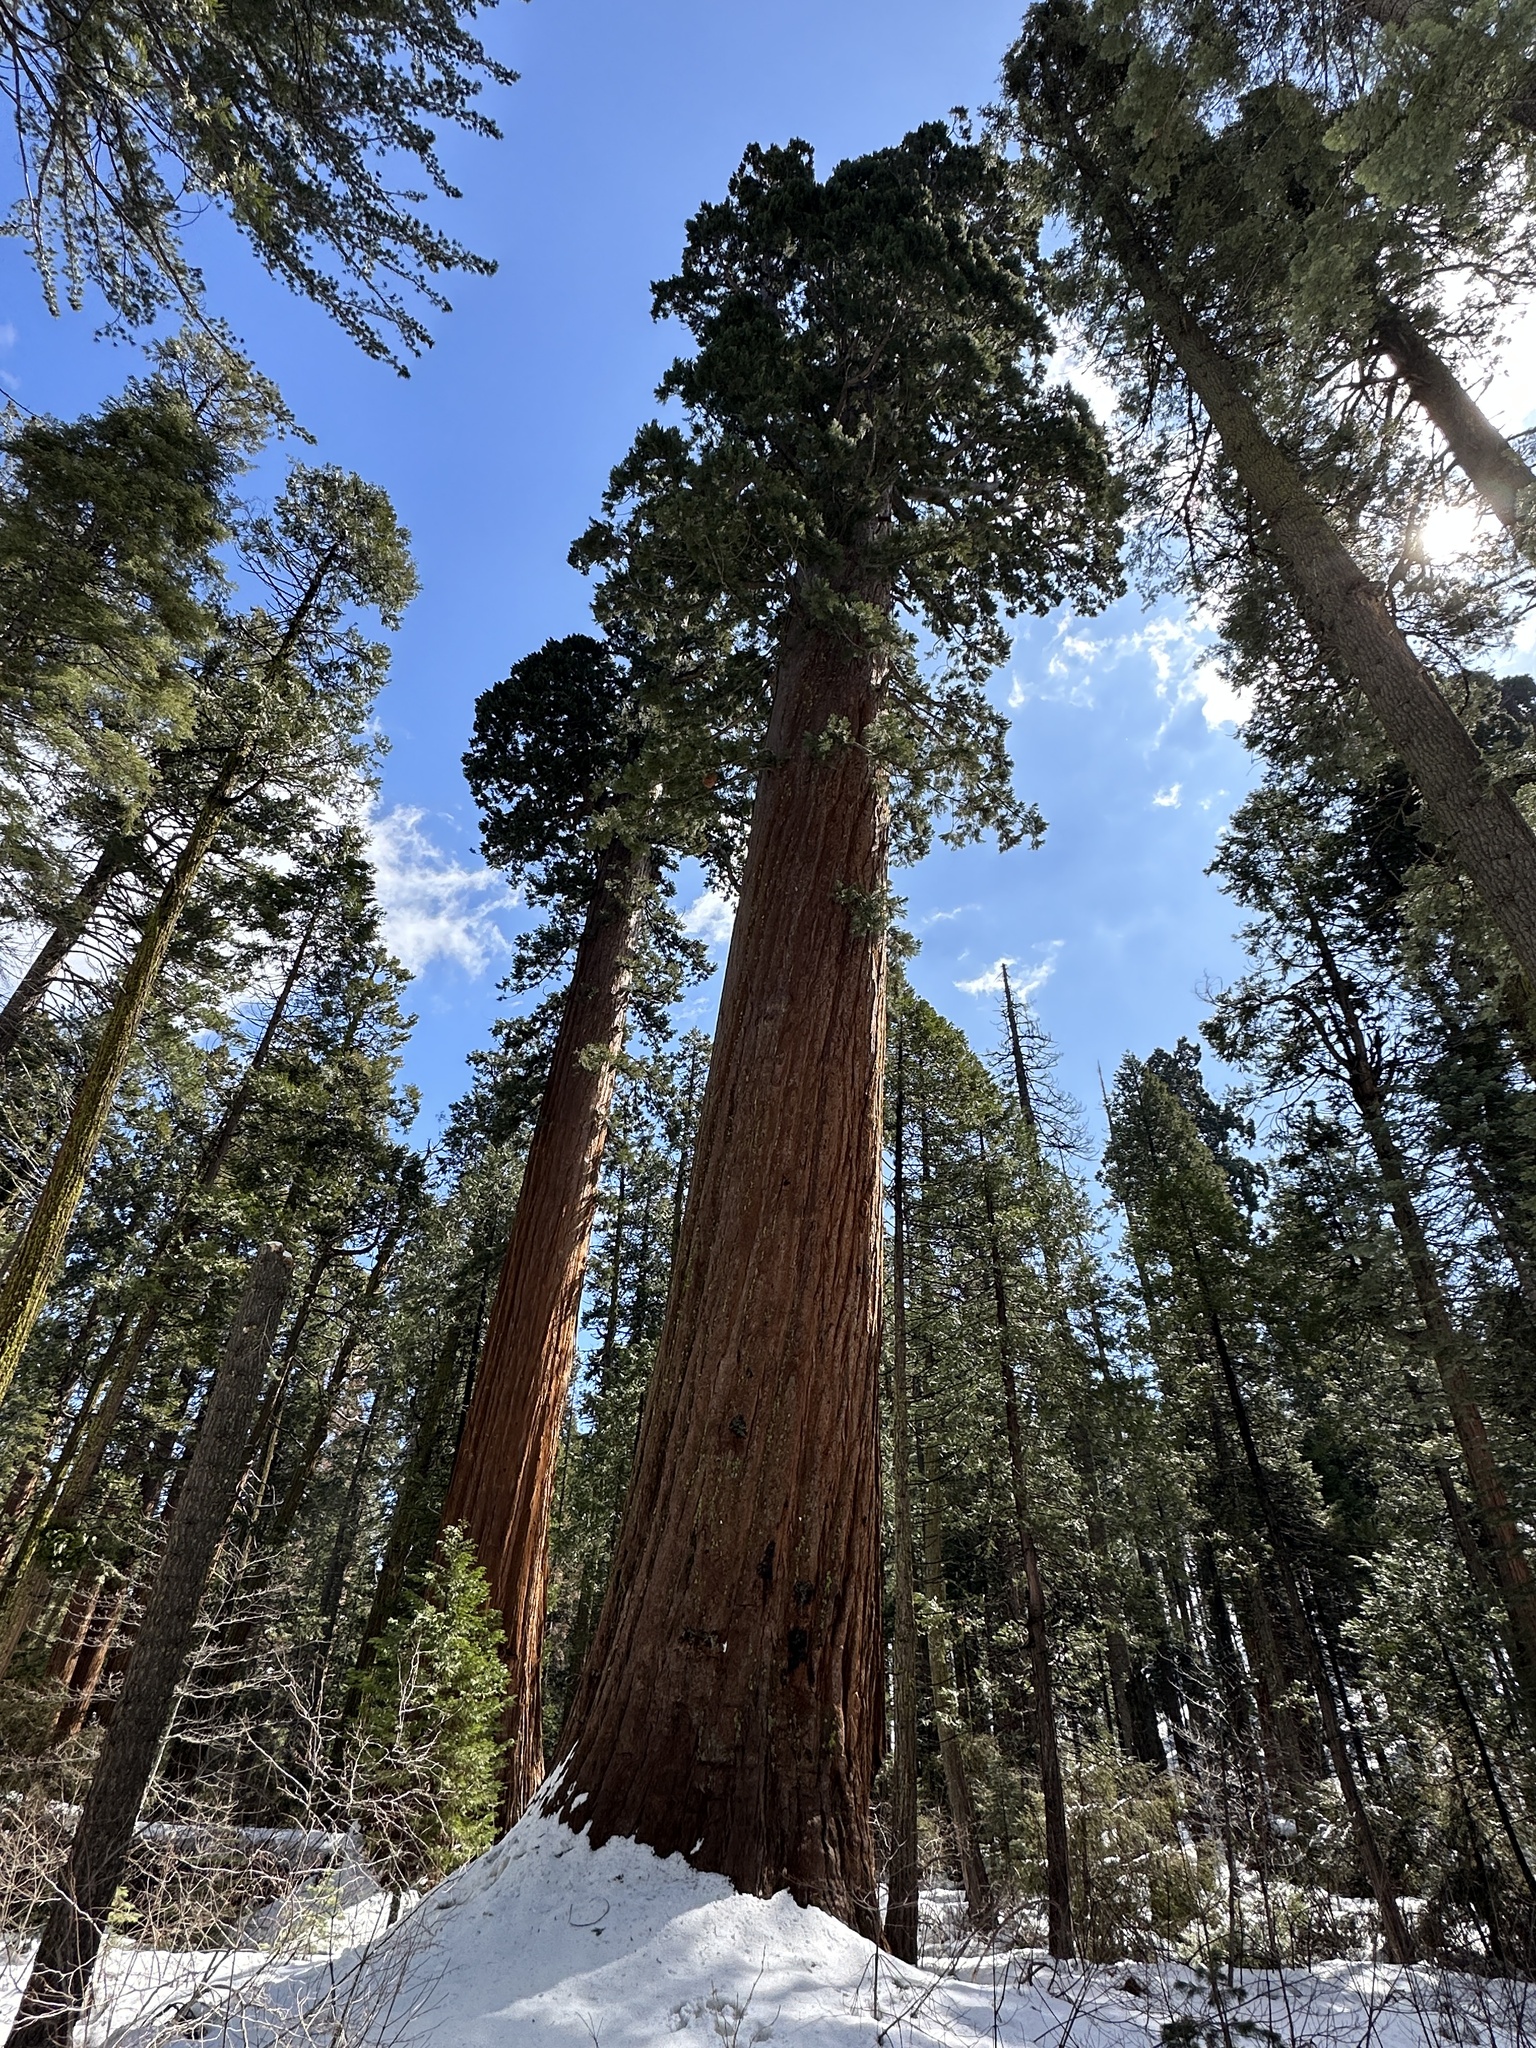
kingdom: Plantae
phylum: Tracheophyta
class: Pinopsida
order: Pinales
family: Cupressaceae
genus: Sequoiadendron
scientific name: Sequoiadendron giganteum
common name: Wellingtonia
